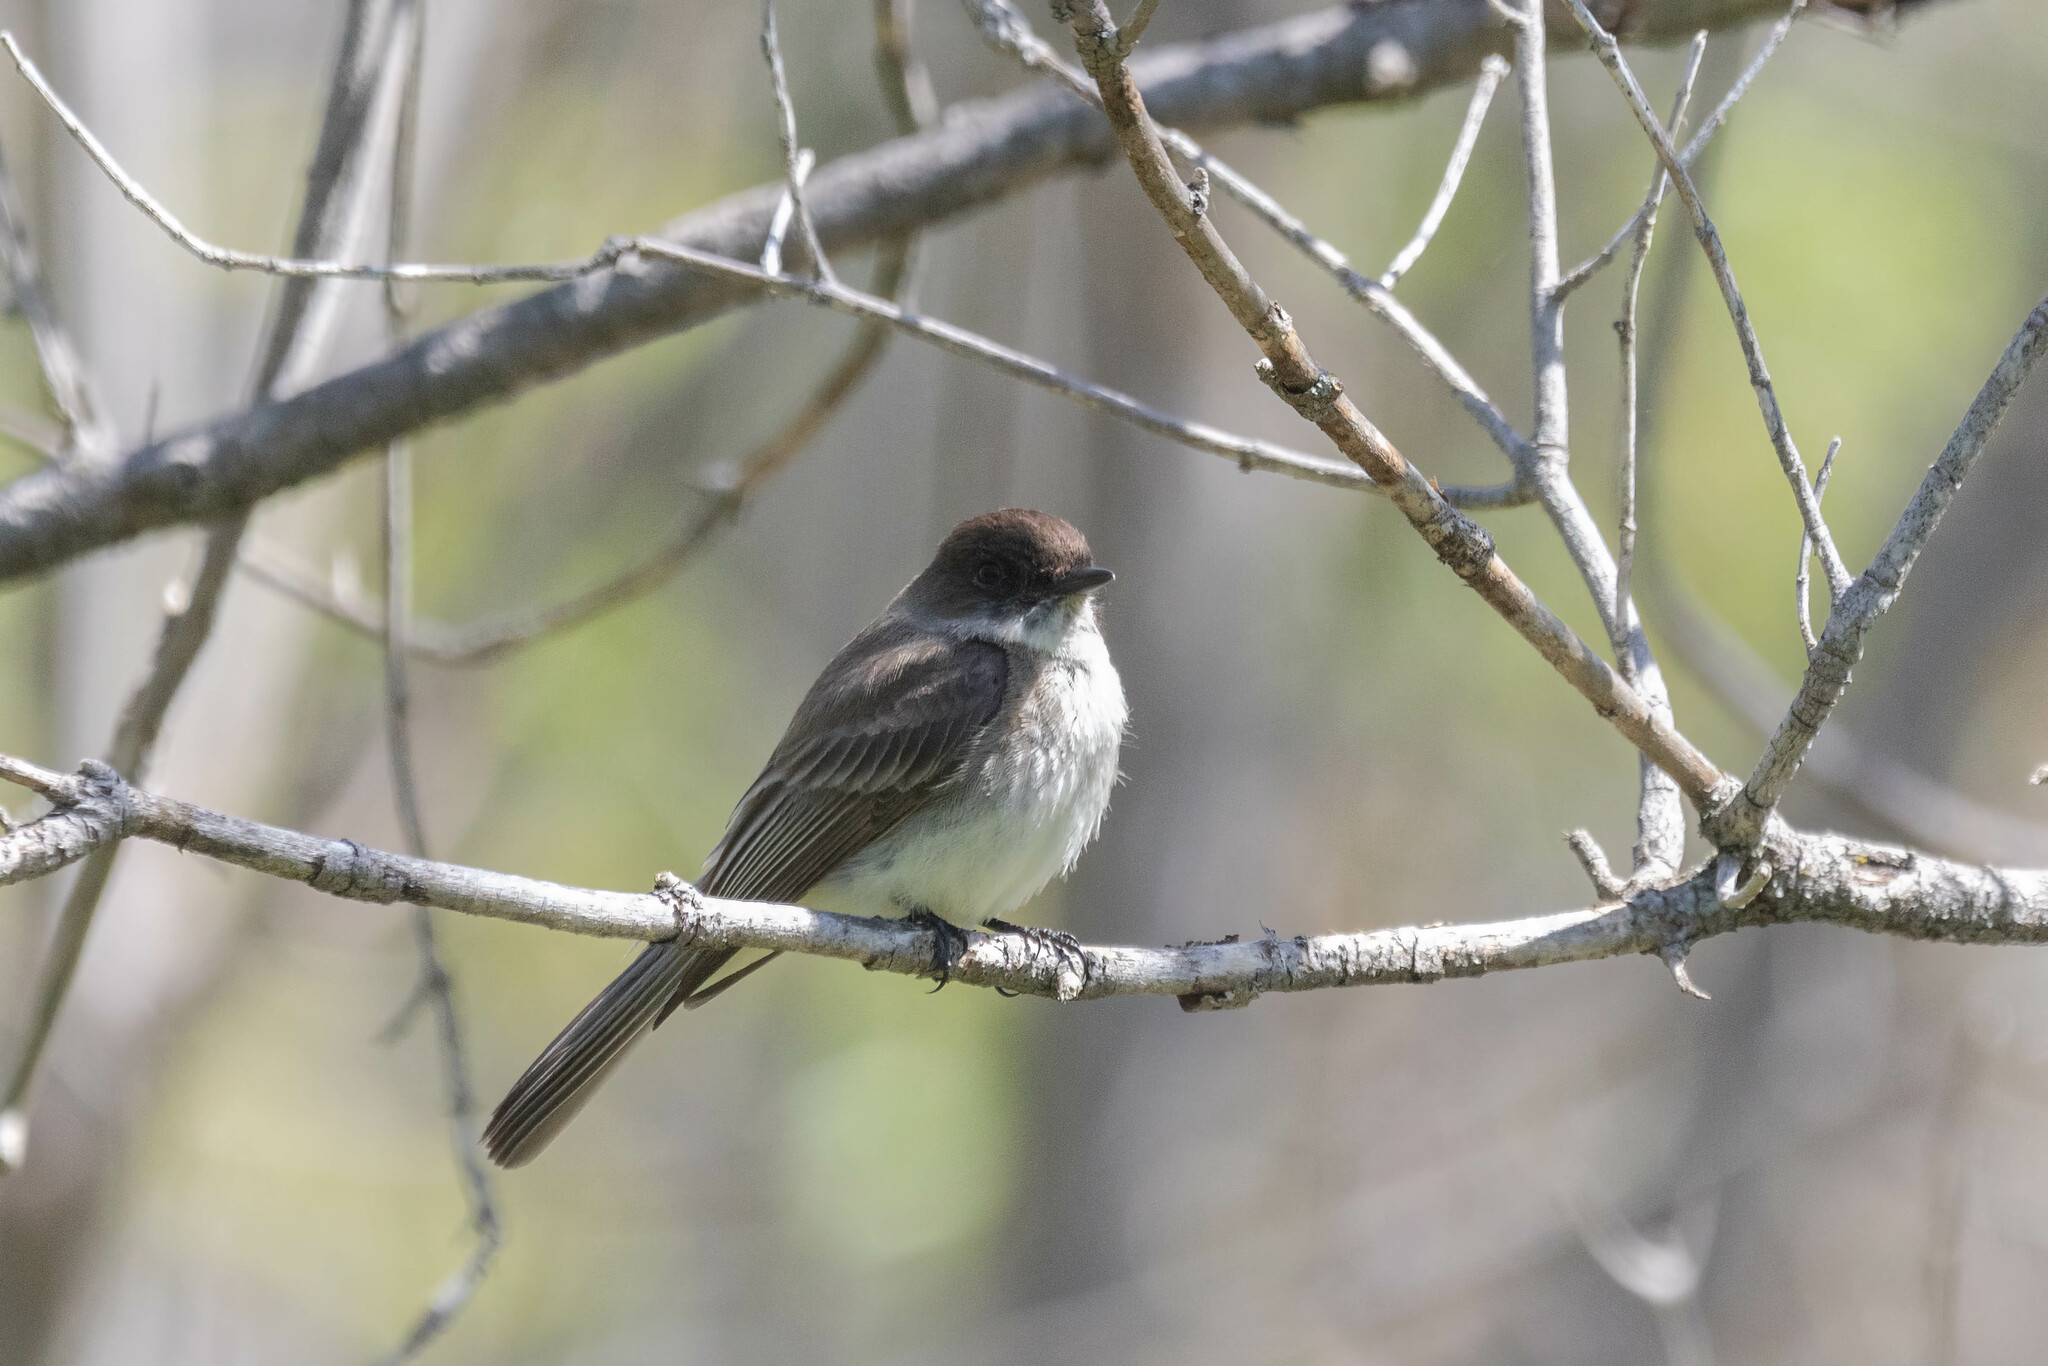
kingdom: Animalia
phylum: Chordata
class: Aves
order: Passeriformes
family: Tyrannidae
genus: Sayornis
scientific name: Sayornis phoebe
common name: Eastern phoebe
